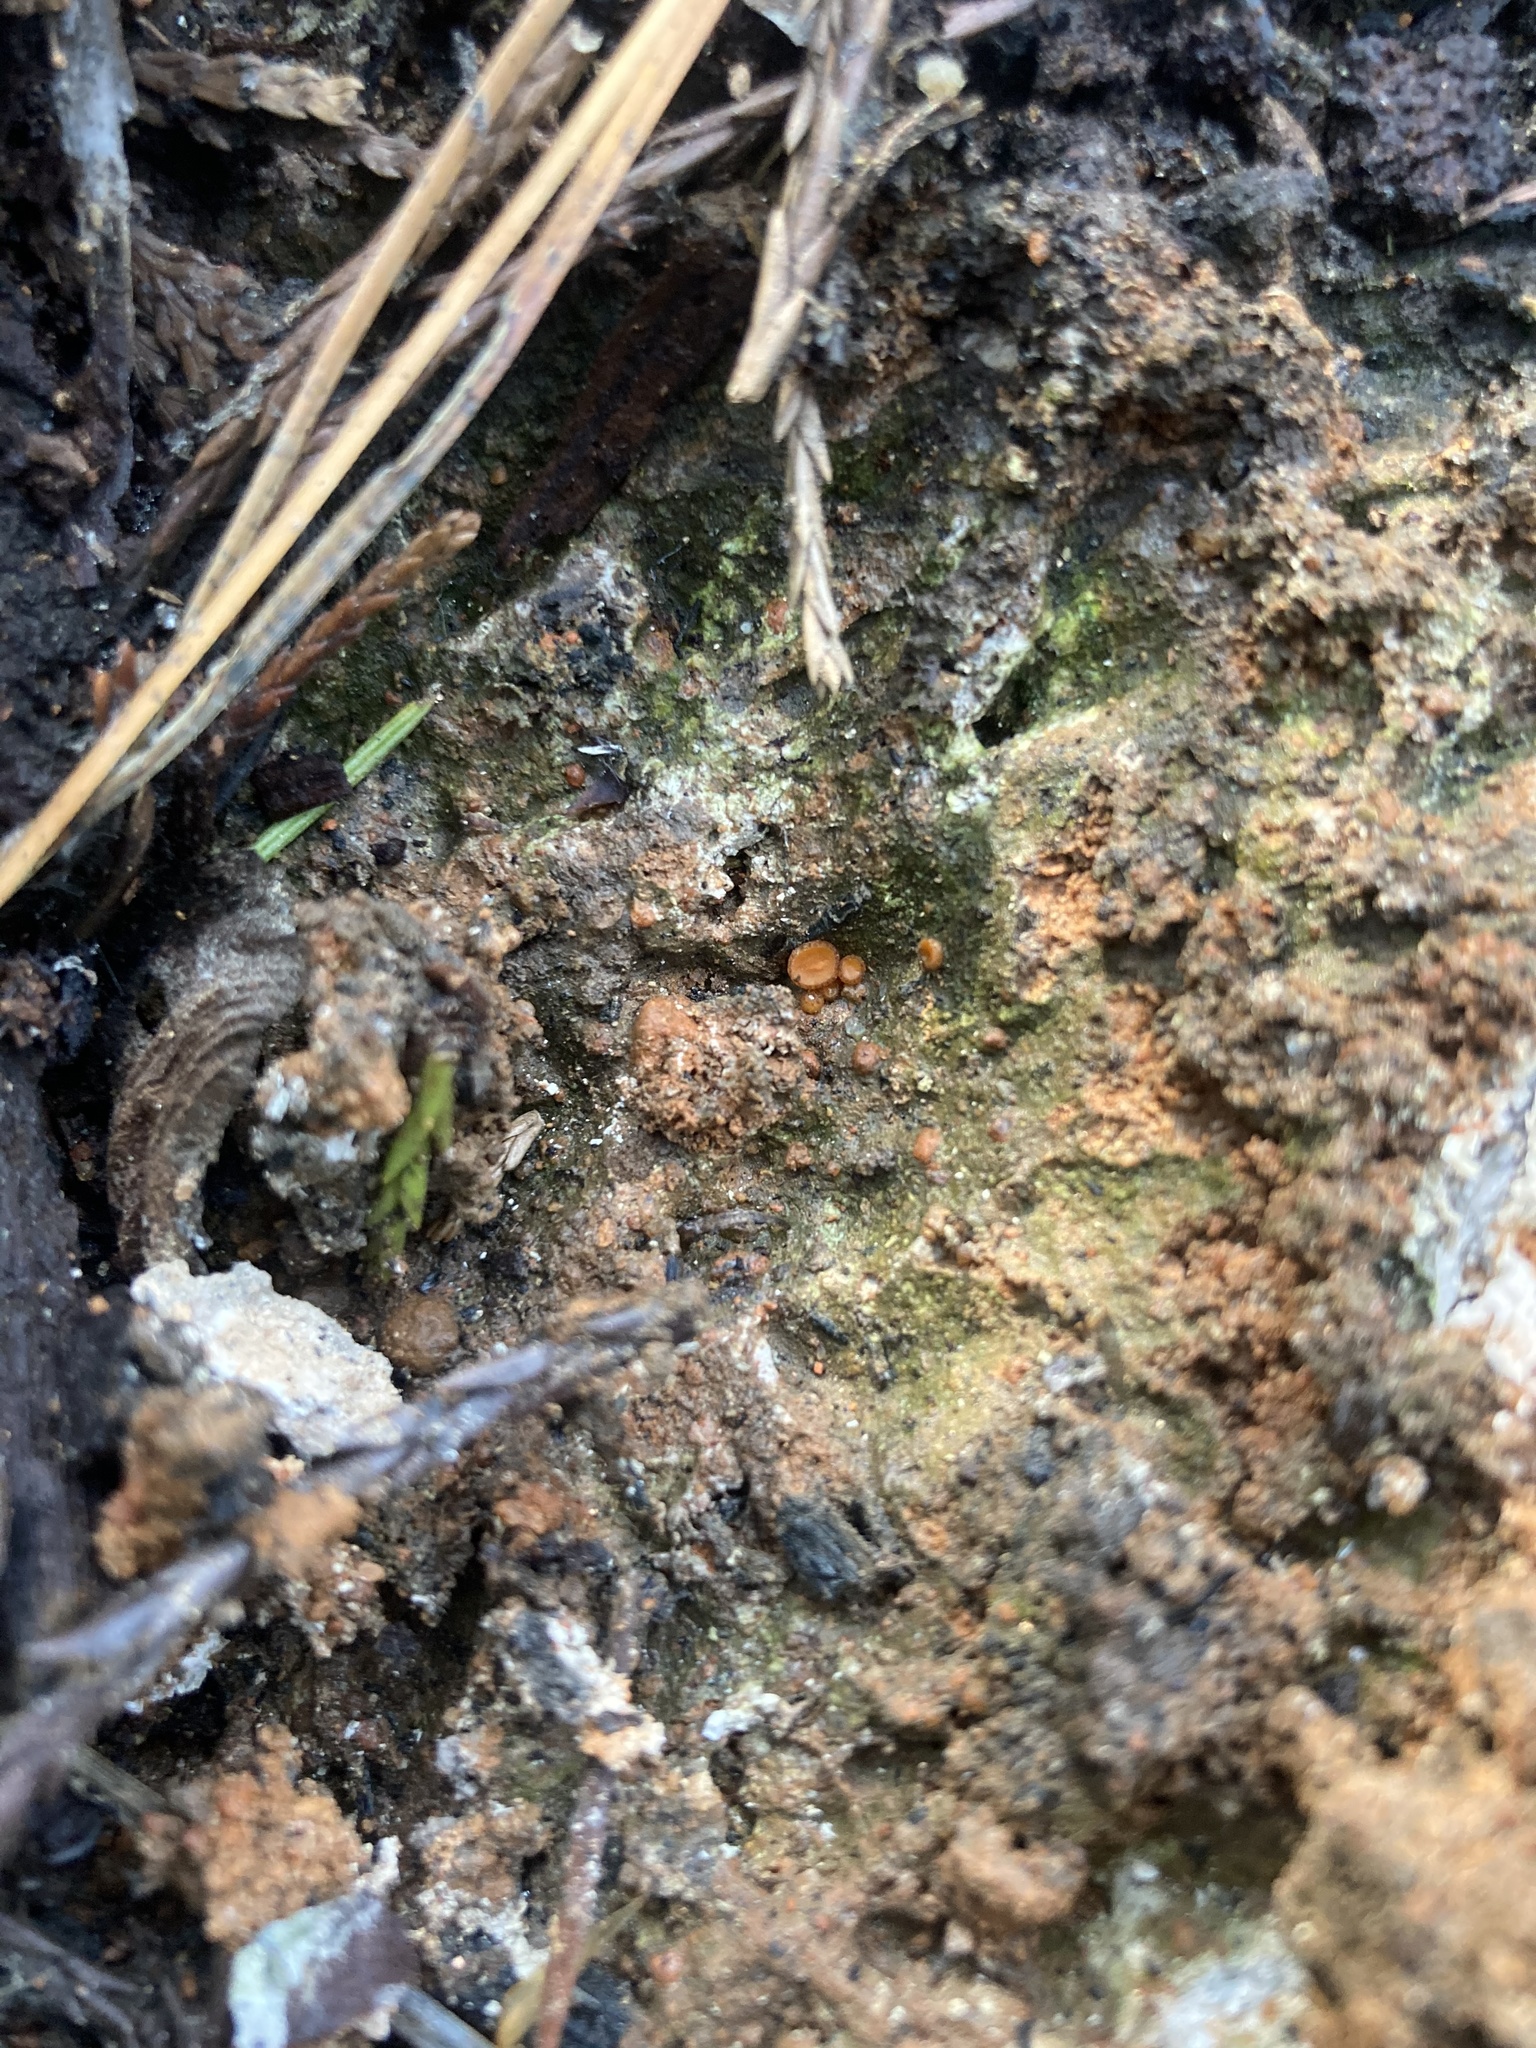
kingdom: Fungi
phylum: Ascomycota
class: Pezizomycetes
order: Pezizales
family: Pyronemataceae
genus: Anthracobia
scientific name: Anthracobia melaloma
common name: Charcoal eyelash
